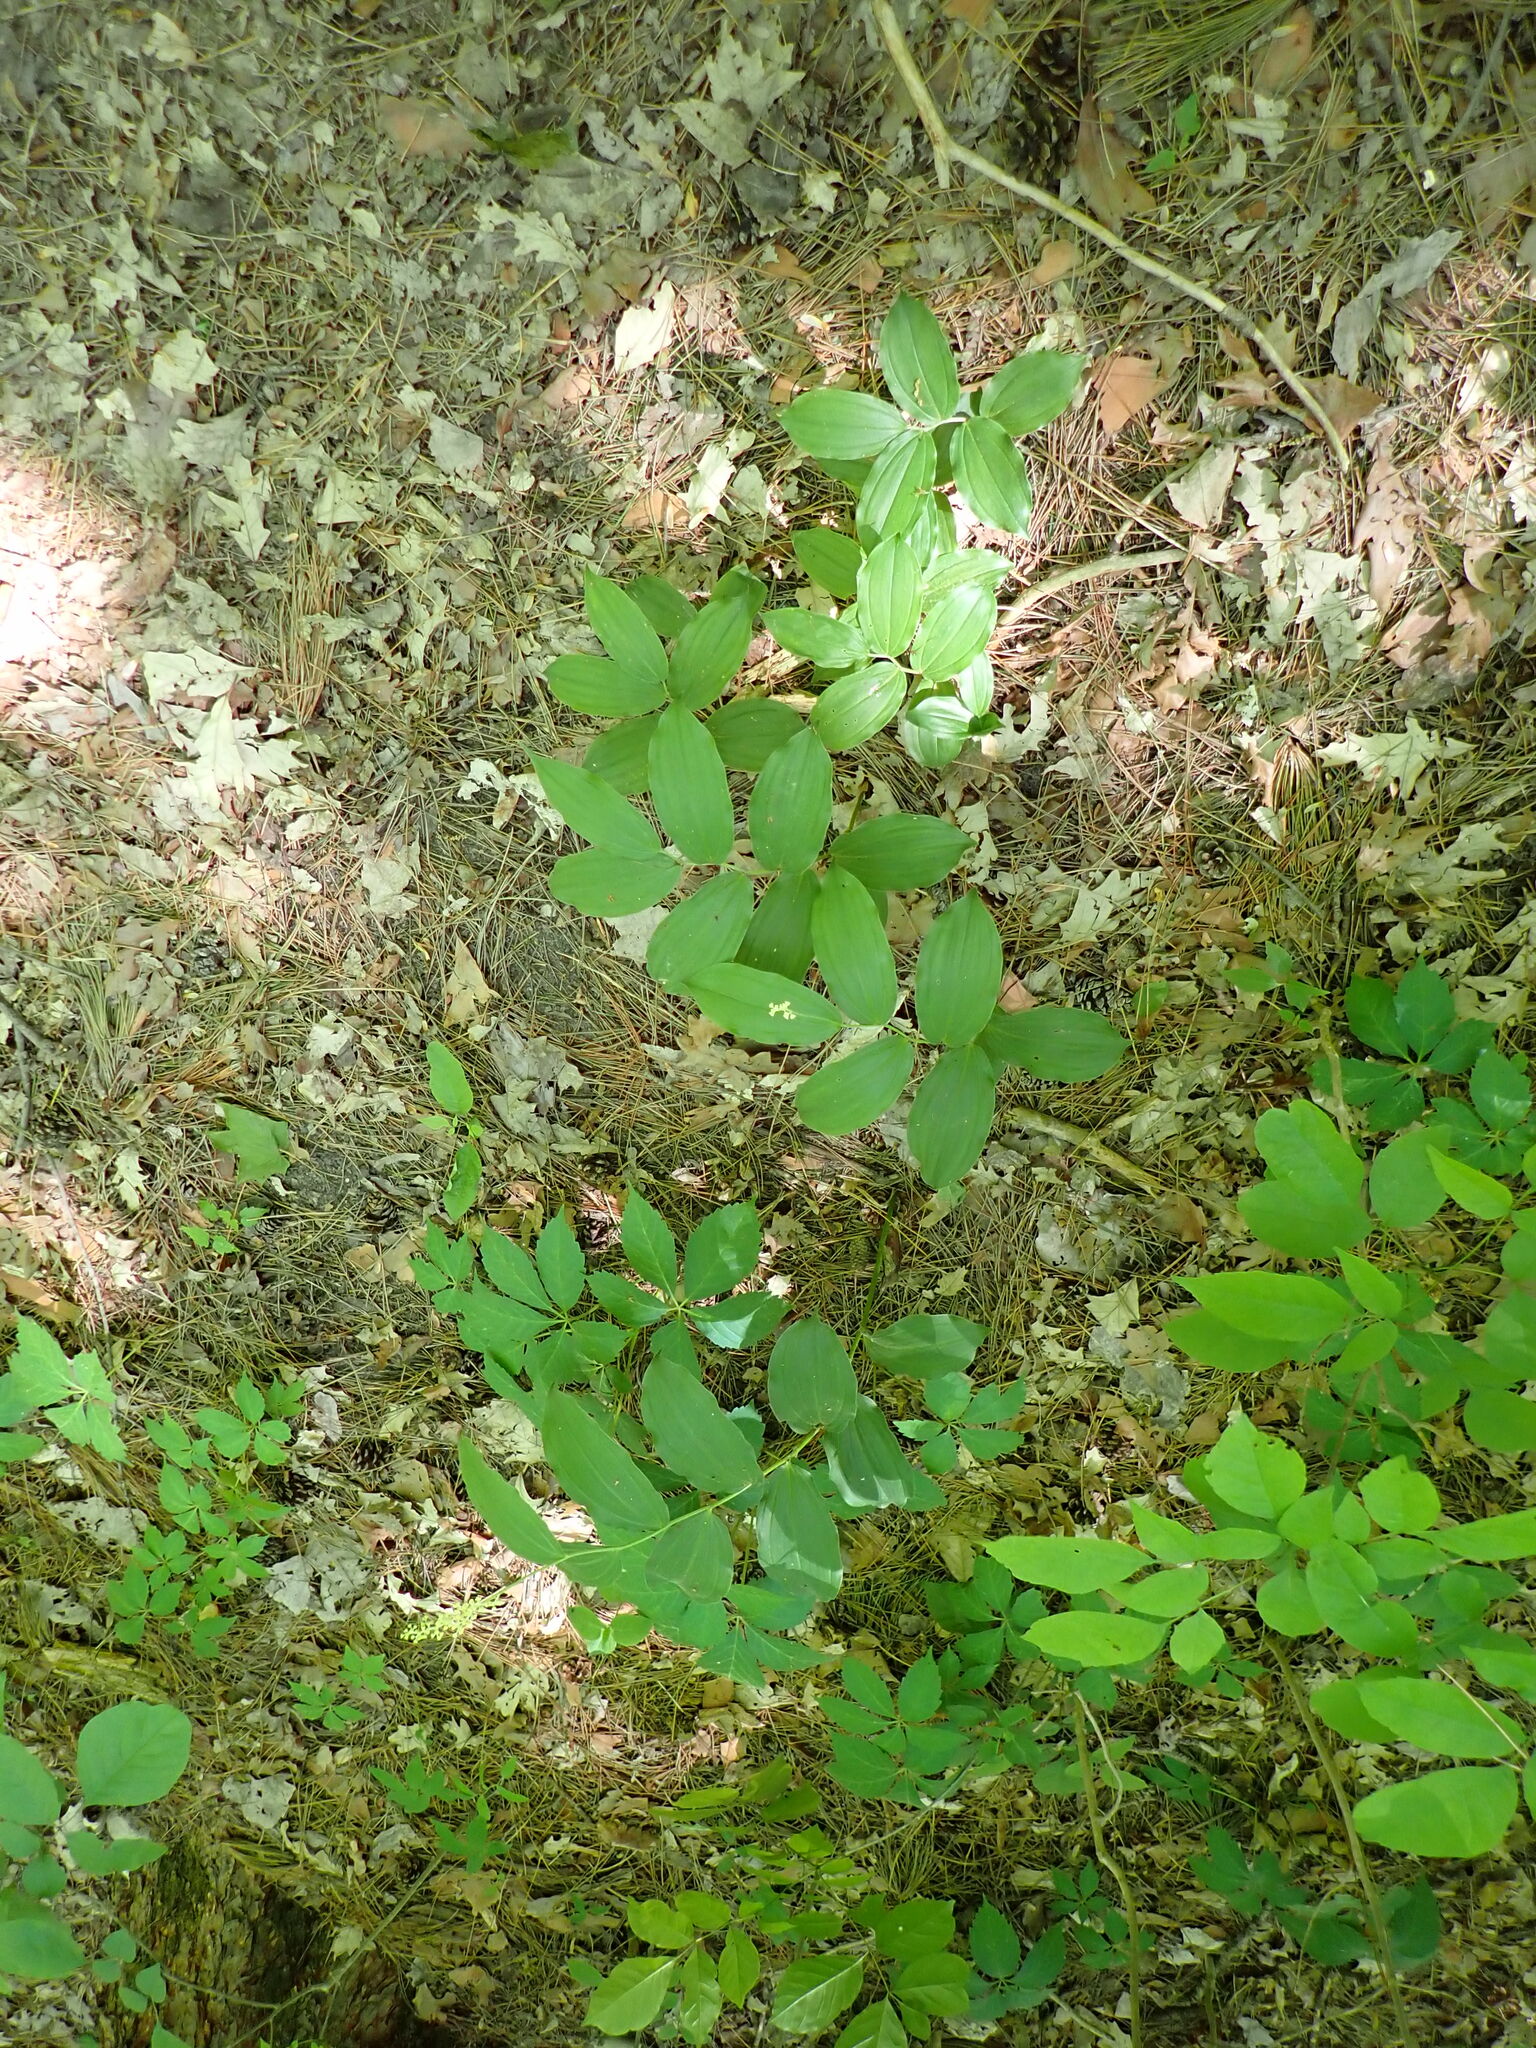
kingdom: Plantae
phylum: Tracheophyta
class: Liliopsida
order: Asparagales
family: Asparagaceae
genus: Maianthemum
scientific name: Maianthemum racemosum
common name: False spikenard
